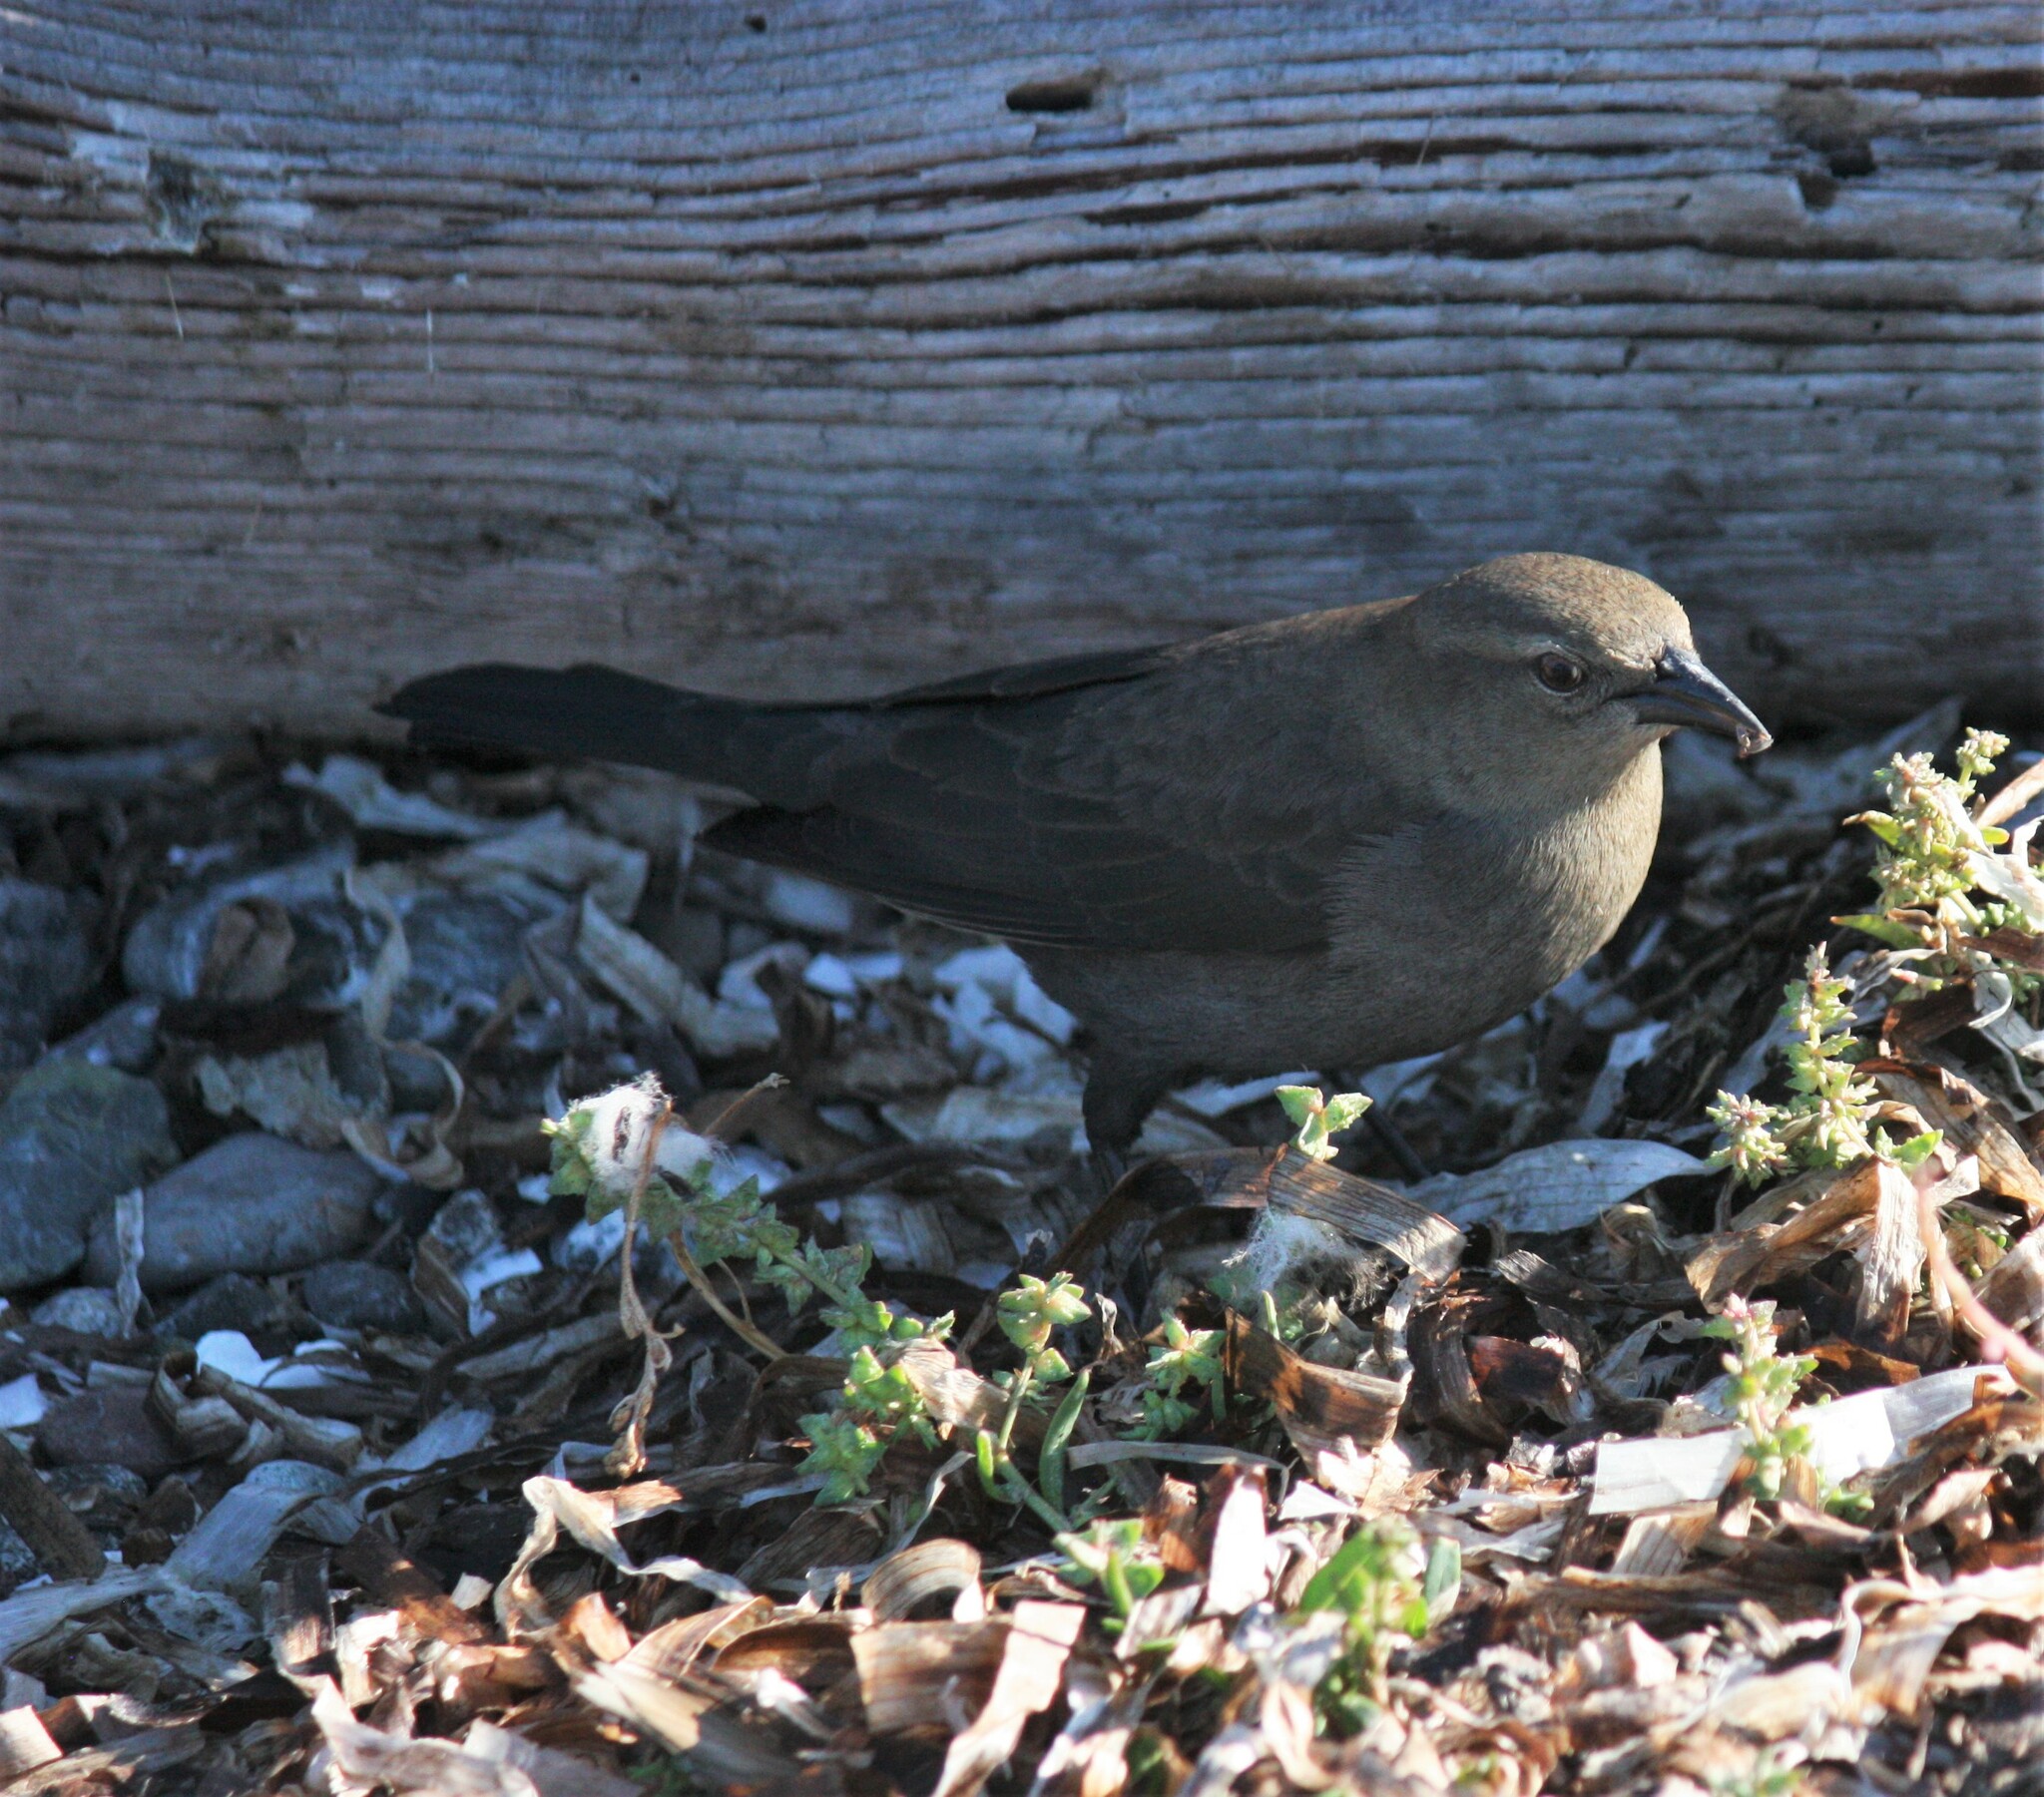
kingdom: Animalia
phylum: Chordata
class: Aves
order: Passeriformes
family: Icteridae
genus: Euphagus
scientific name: Euphagus cyanocephalus
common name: Brewer's blackbird
